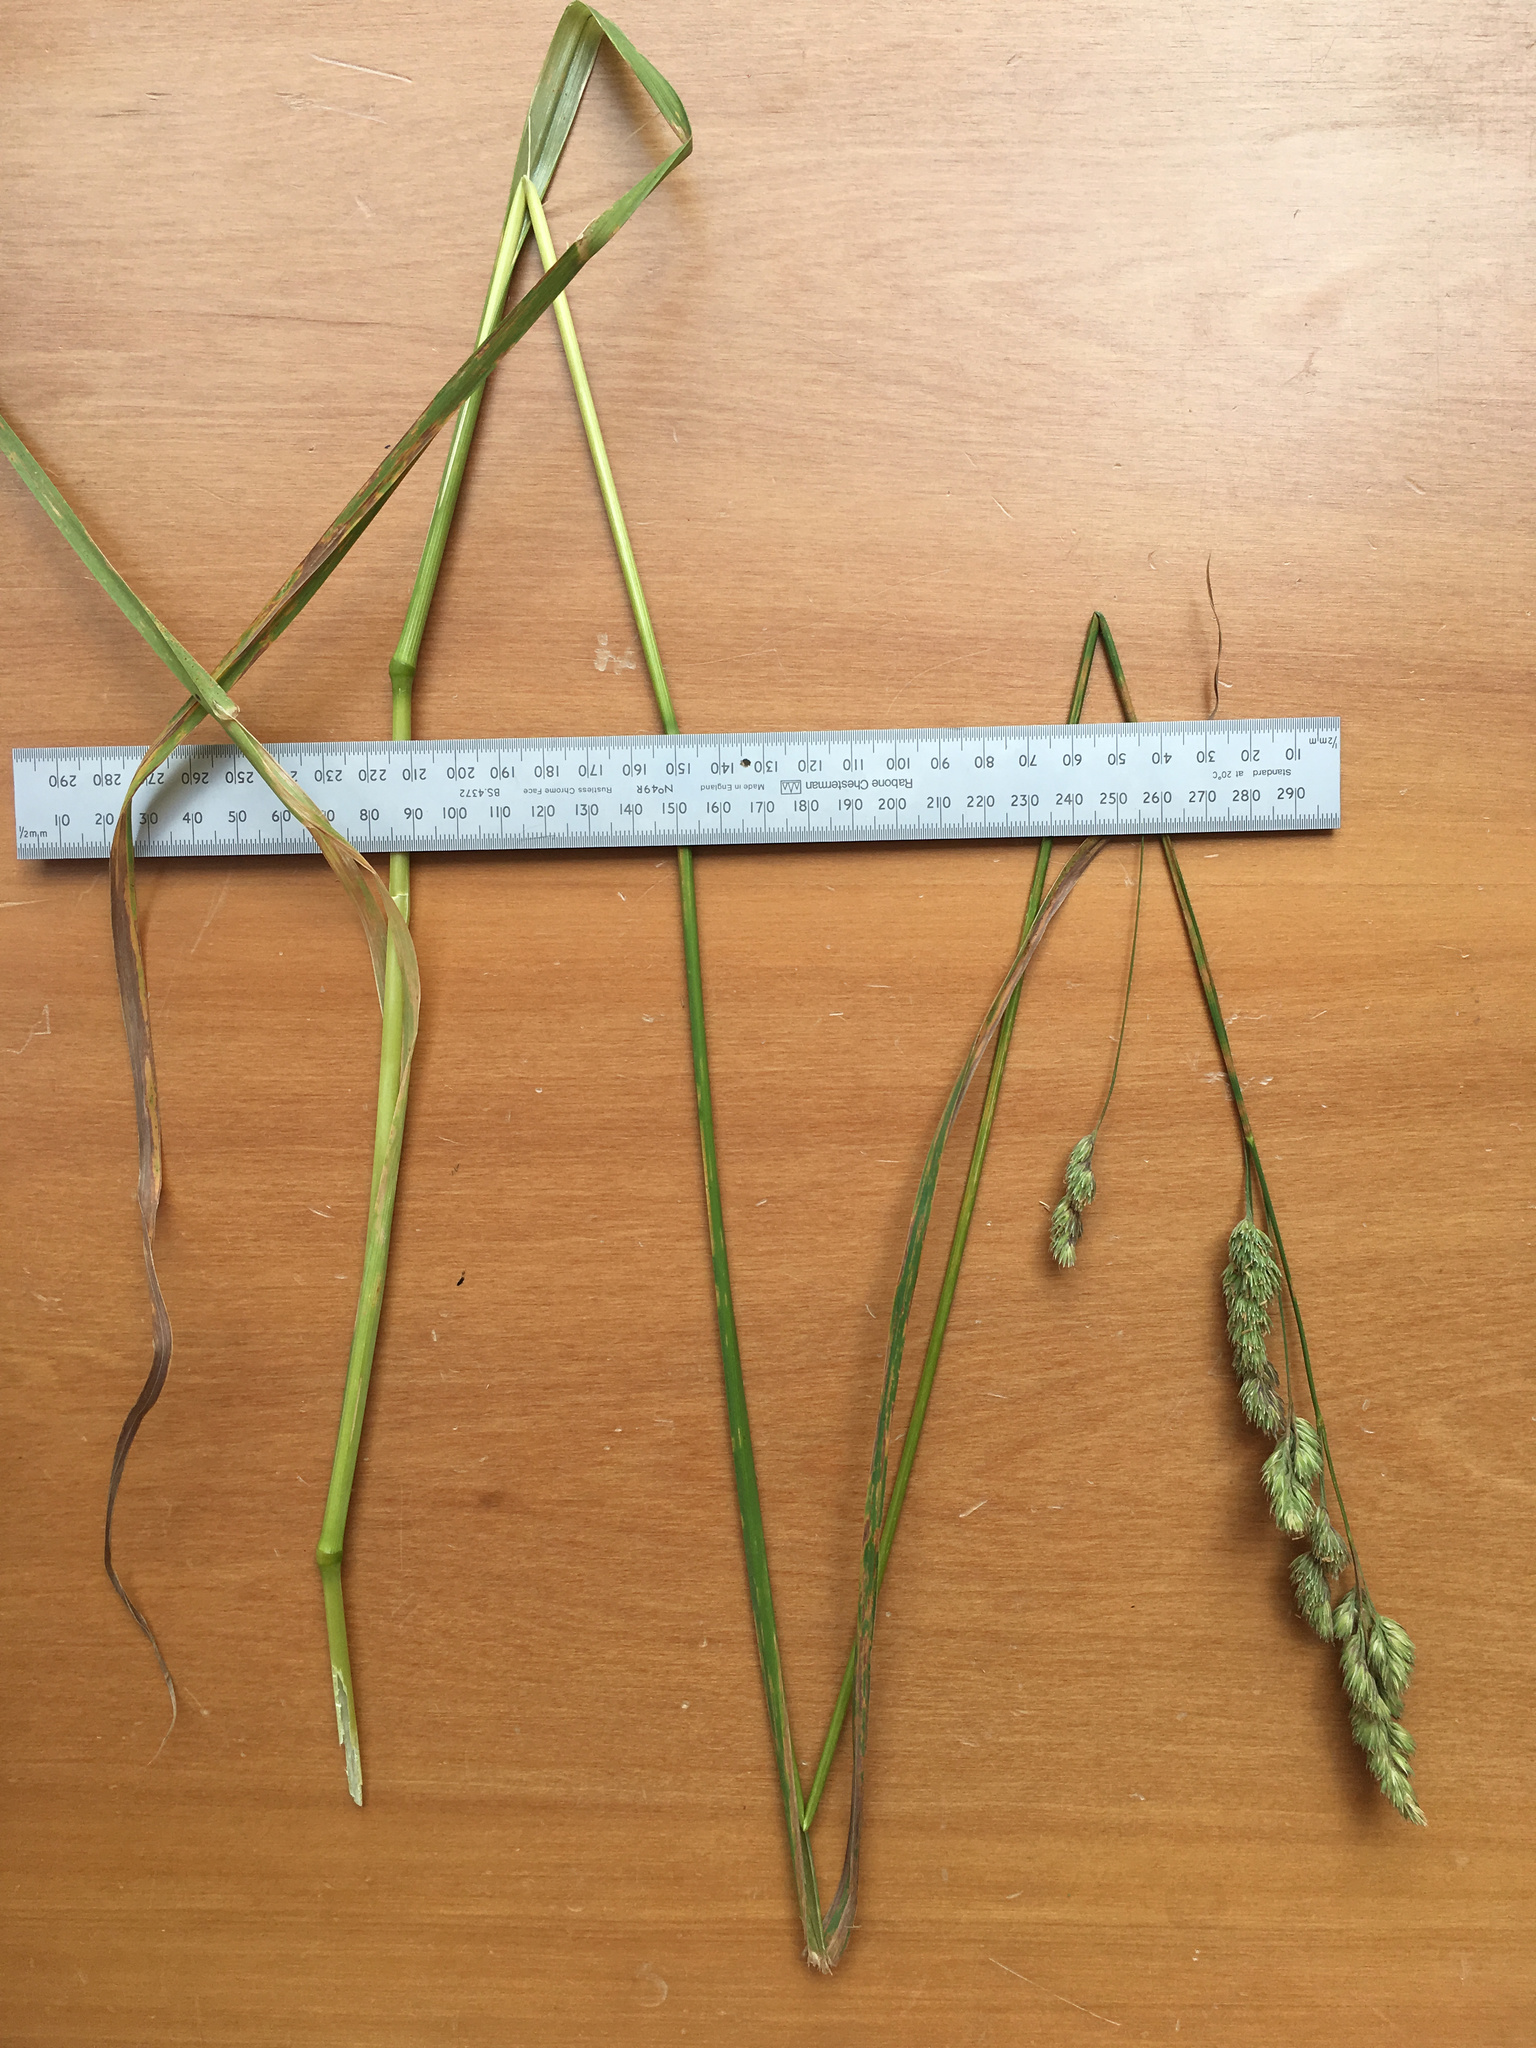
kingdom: Plantae
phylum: Tracheophyta
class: Liliopsida
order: Poales
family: Poaceae
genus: Dactylis
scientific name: Dactylis glomerata
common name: Orchardgrass
